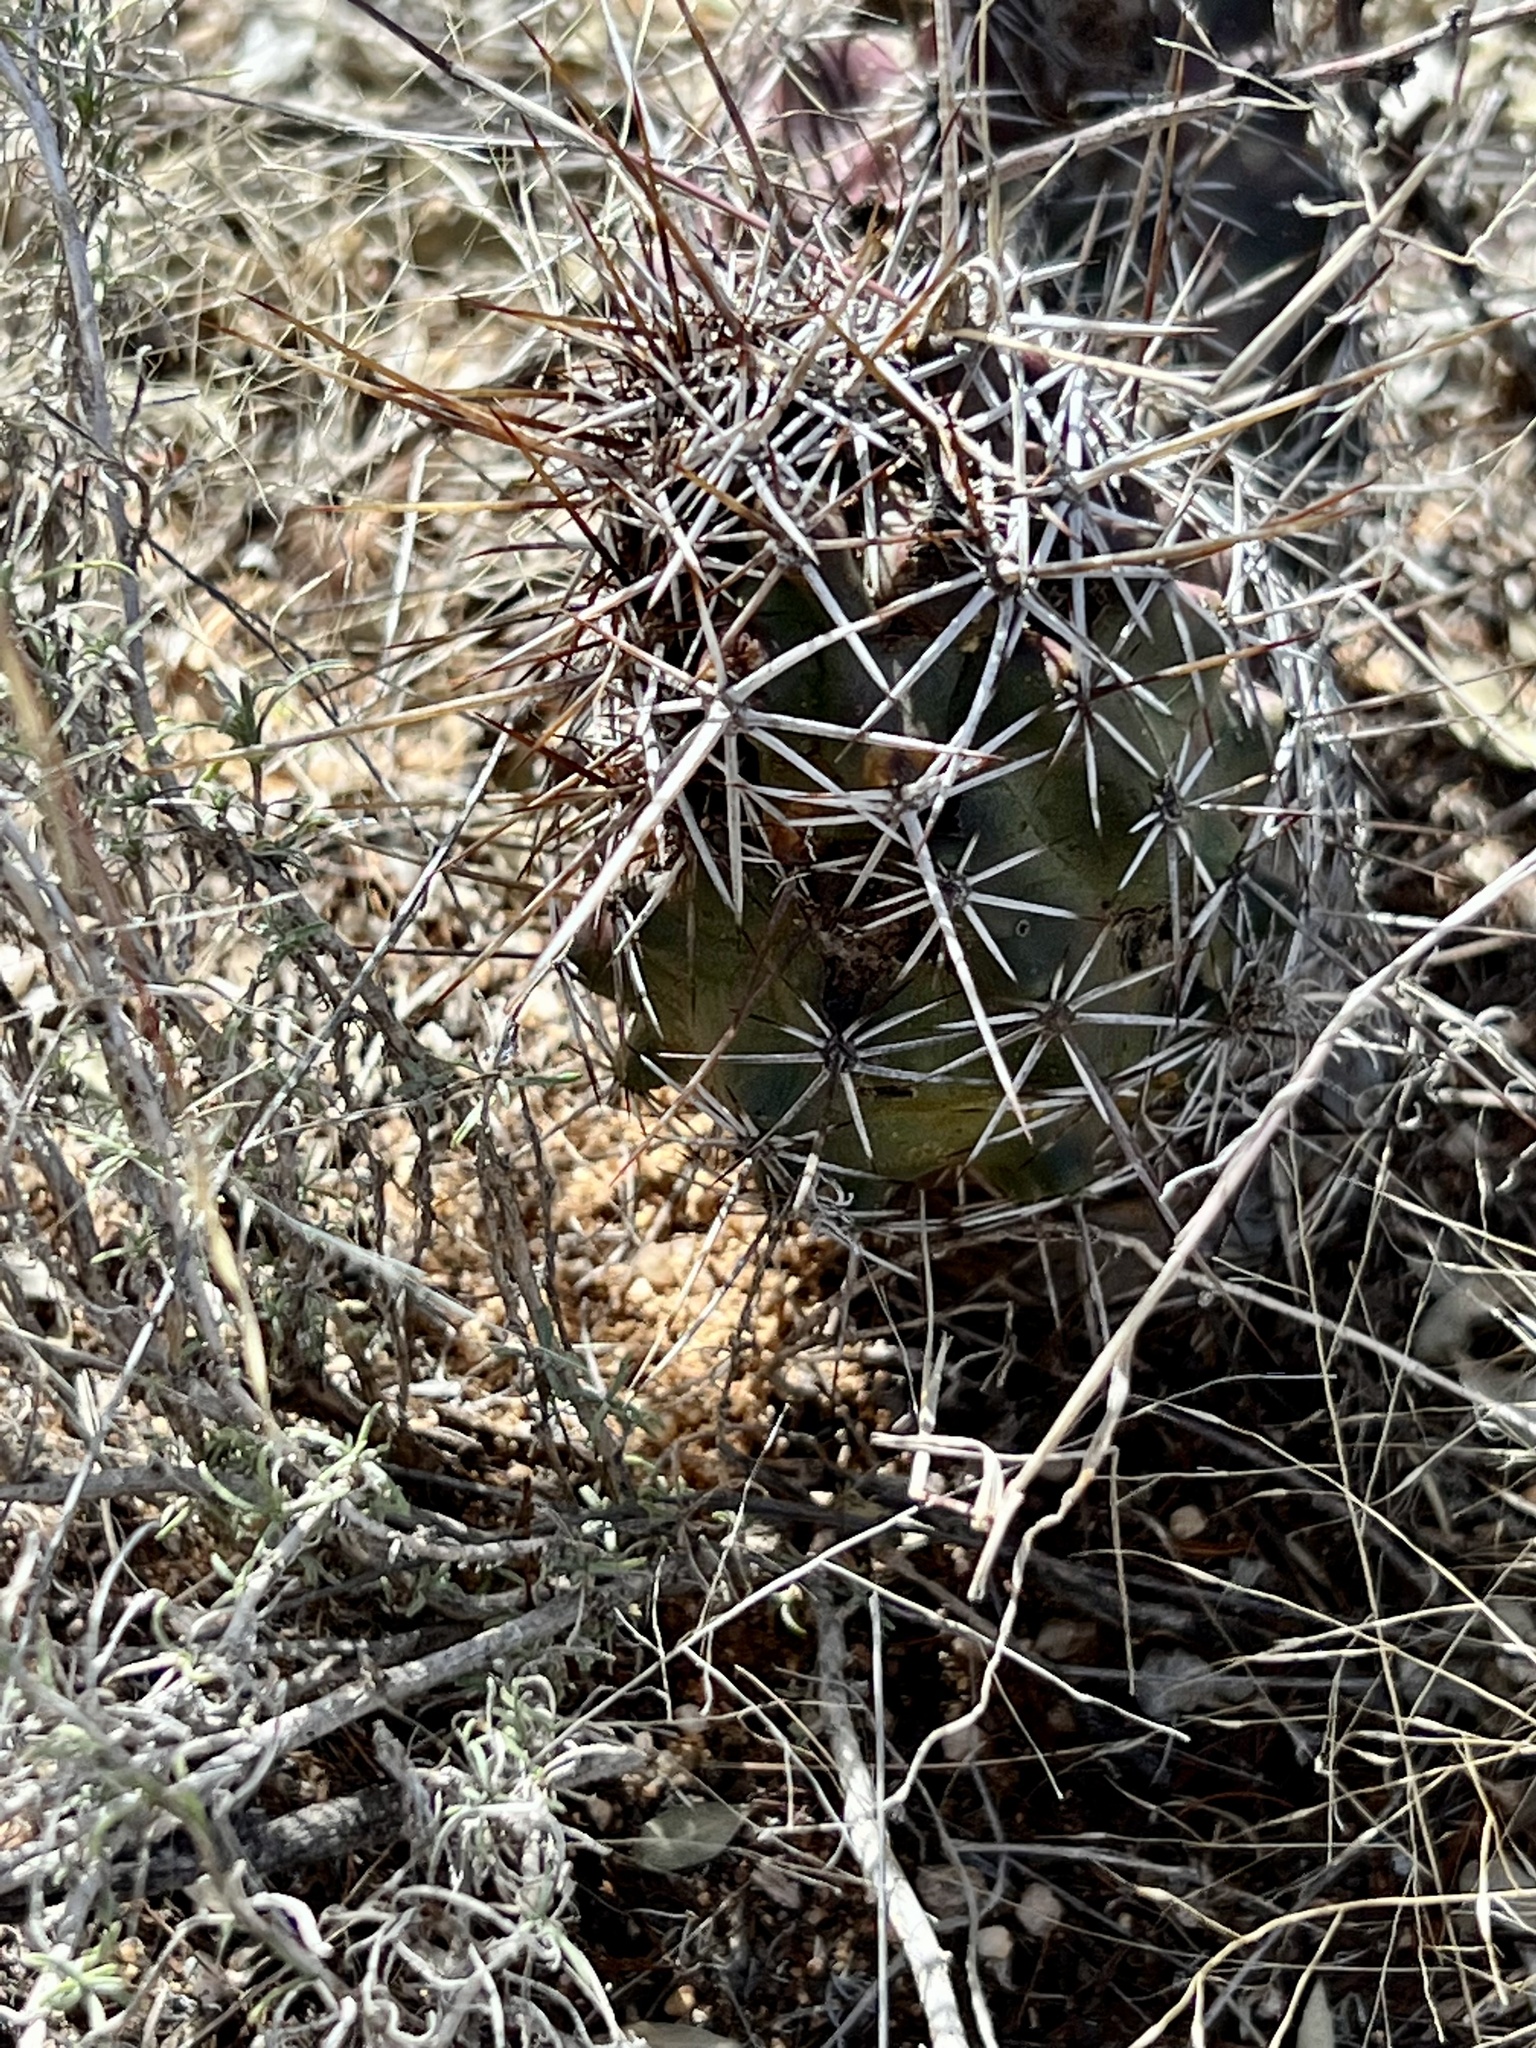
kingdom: Plantae
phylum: Tracheophyta
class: Magnoliopsida
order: Caryophyllales
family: Cactaceae
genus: Echinocereus
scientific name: Echinocereus fendleri
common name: Fendler's hedgehog cactus
